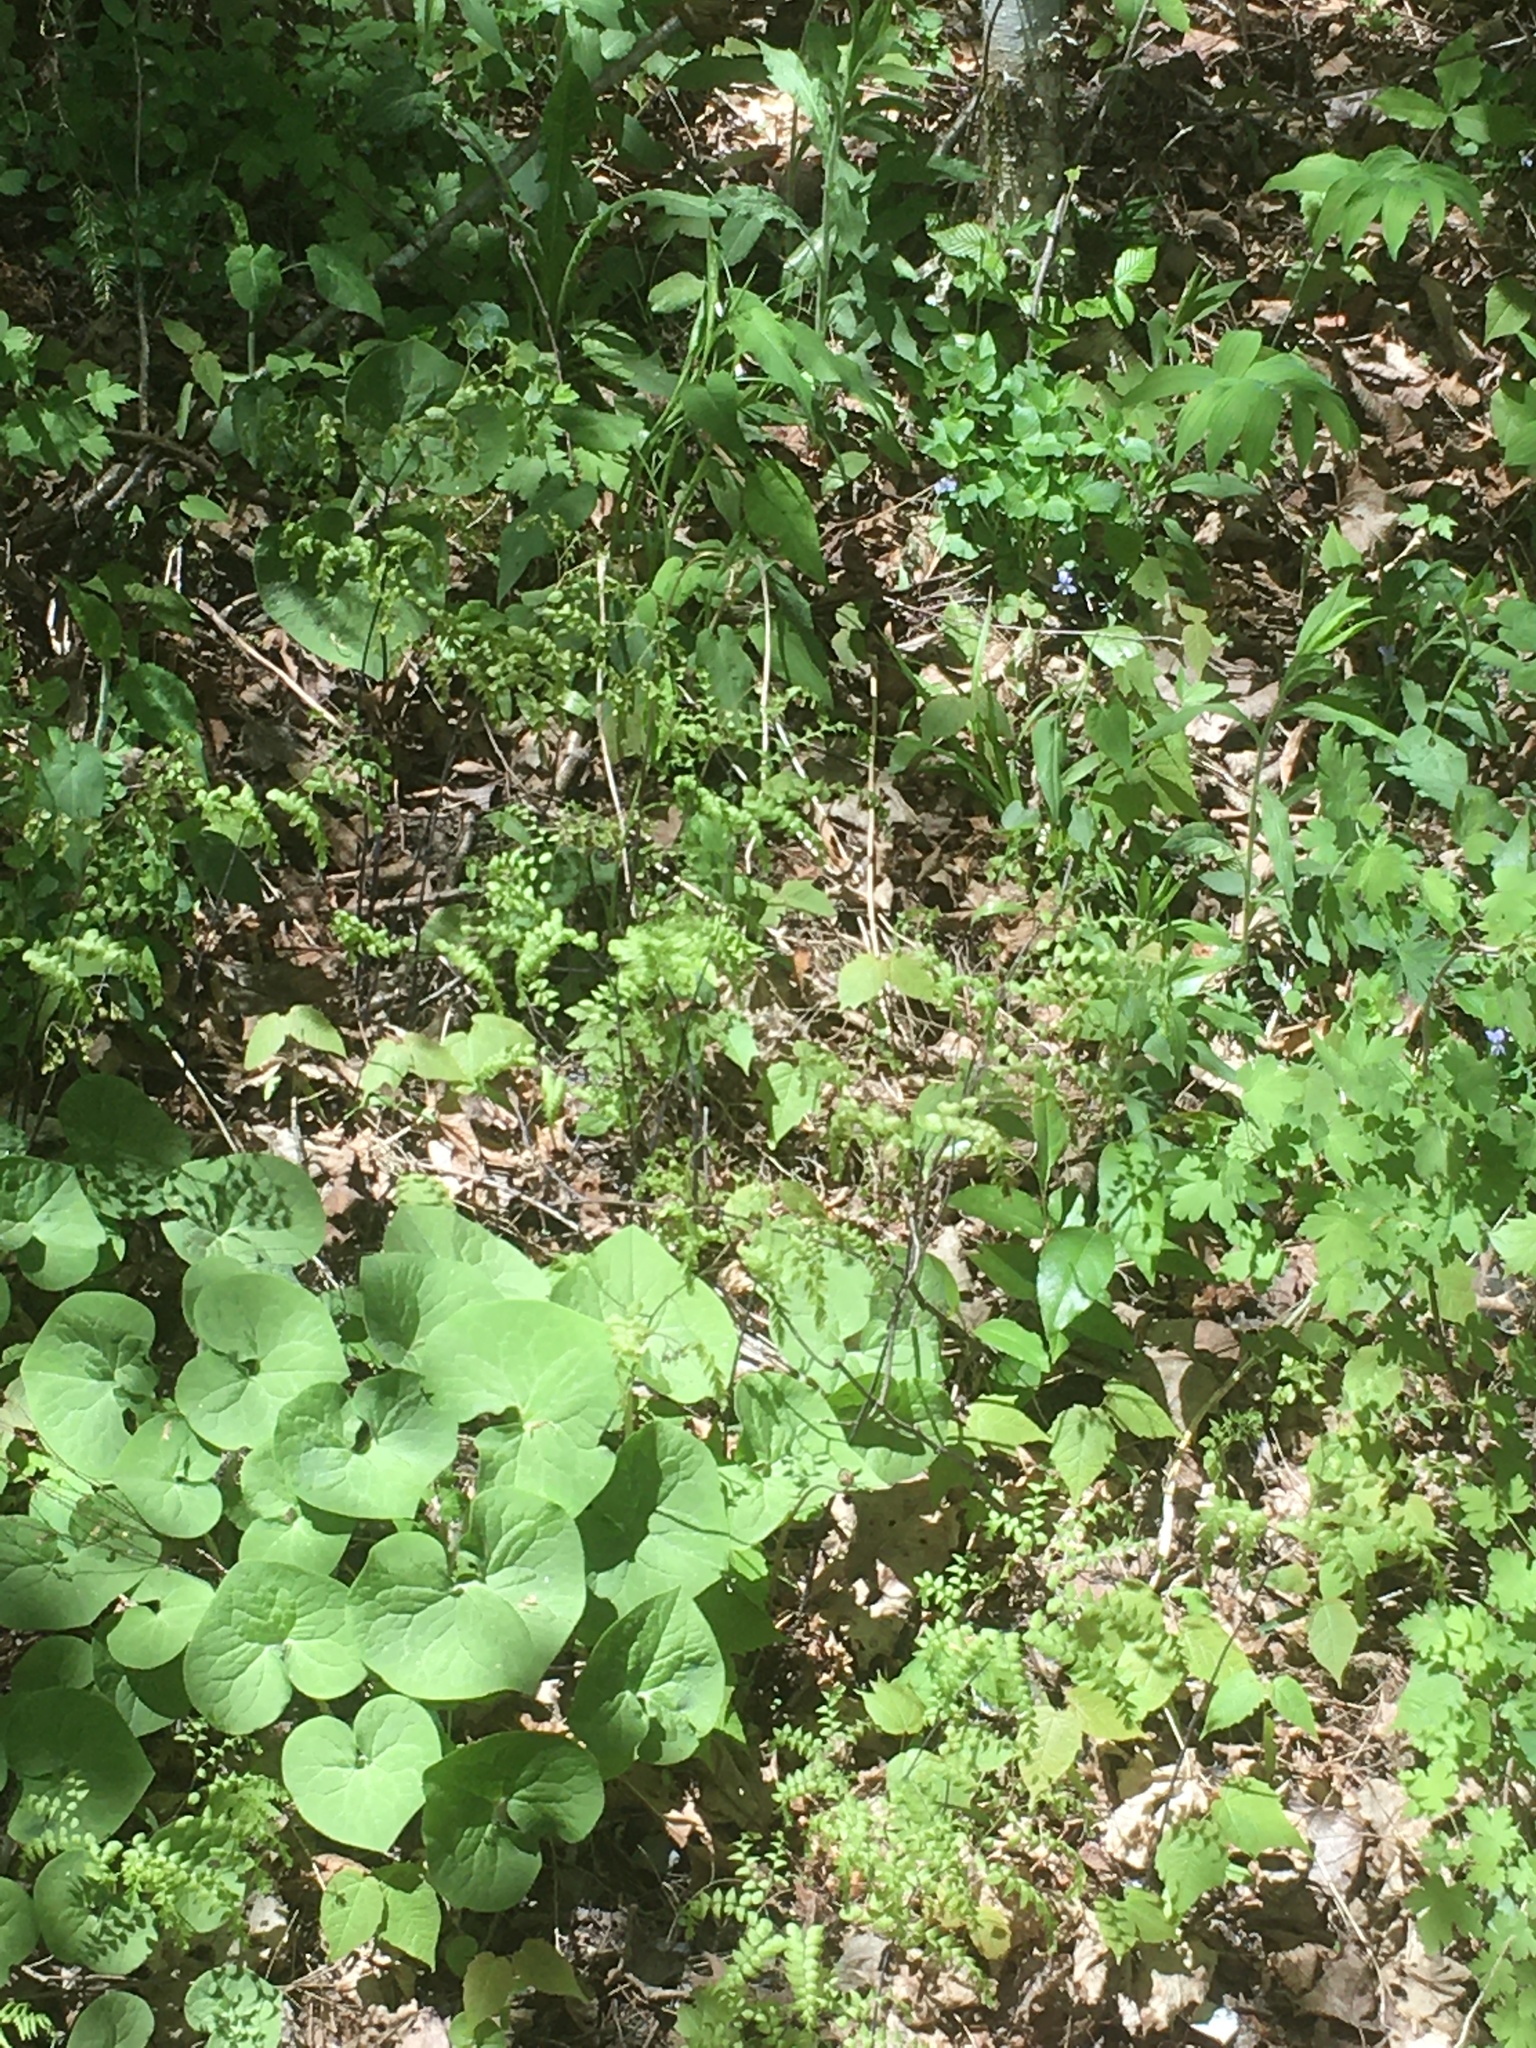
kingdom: Plantae
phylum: Tracheophyta
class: Polypodiopsida
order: Polypodiales
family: Pteridaceae
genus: Adiantum
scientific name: Adiantum pedatum
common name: Five-finger fern
